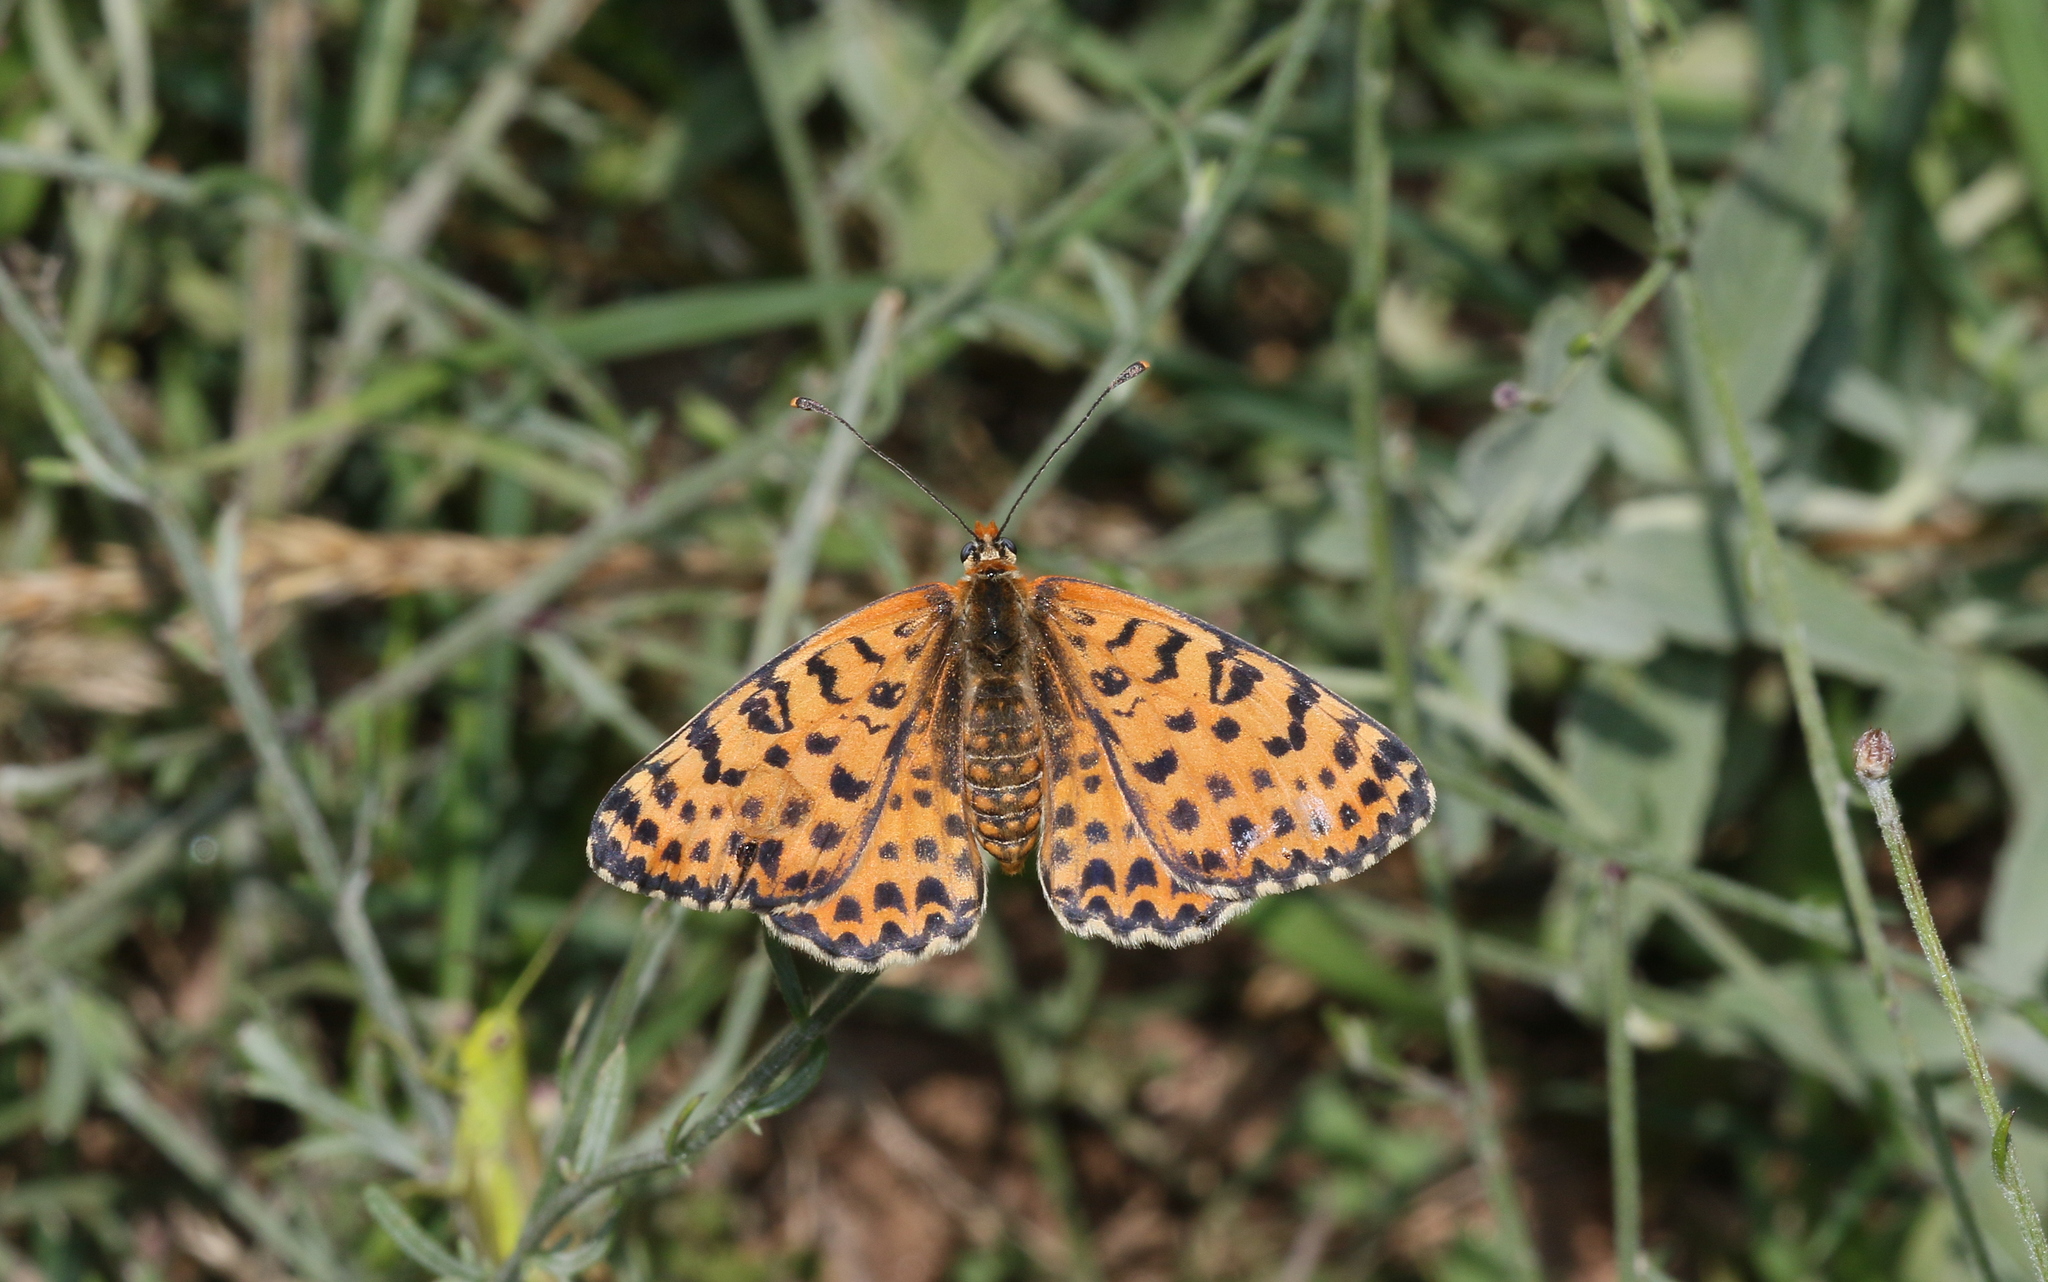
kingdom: Animalia
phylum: Arthropoda
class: Insecta
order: Lepidoptera
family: Nymphalidae
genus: Melitaea
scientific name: Melitaea didyma
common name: Spotted fritillary
